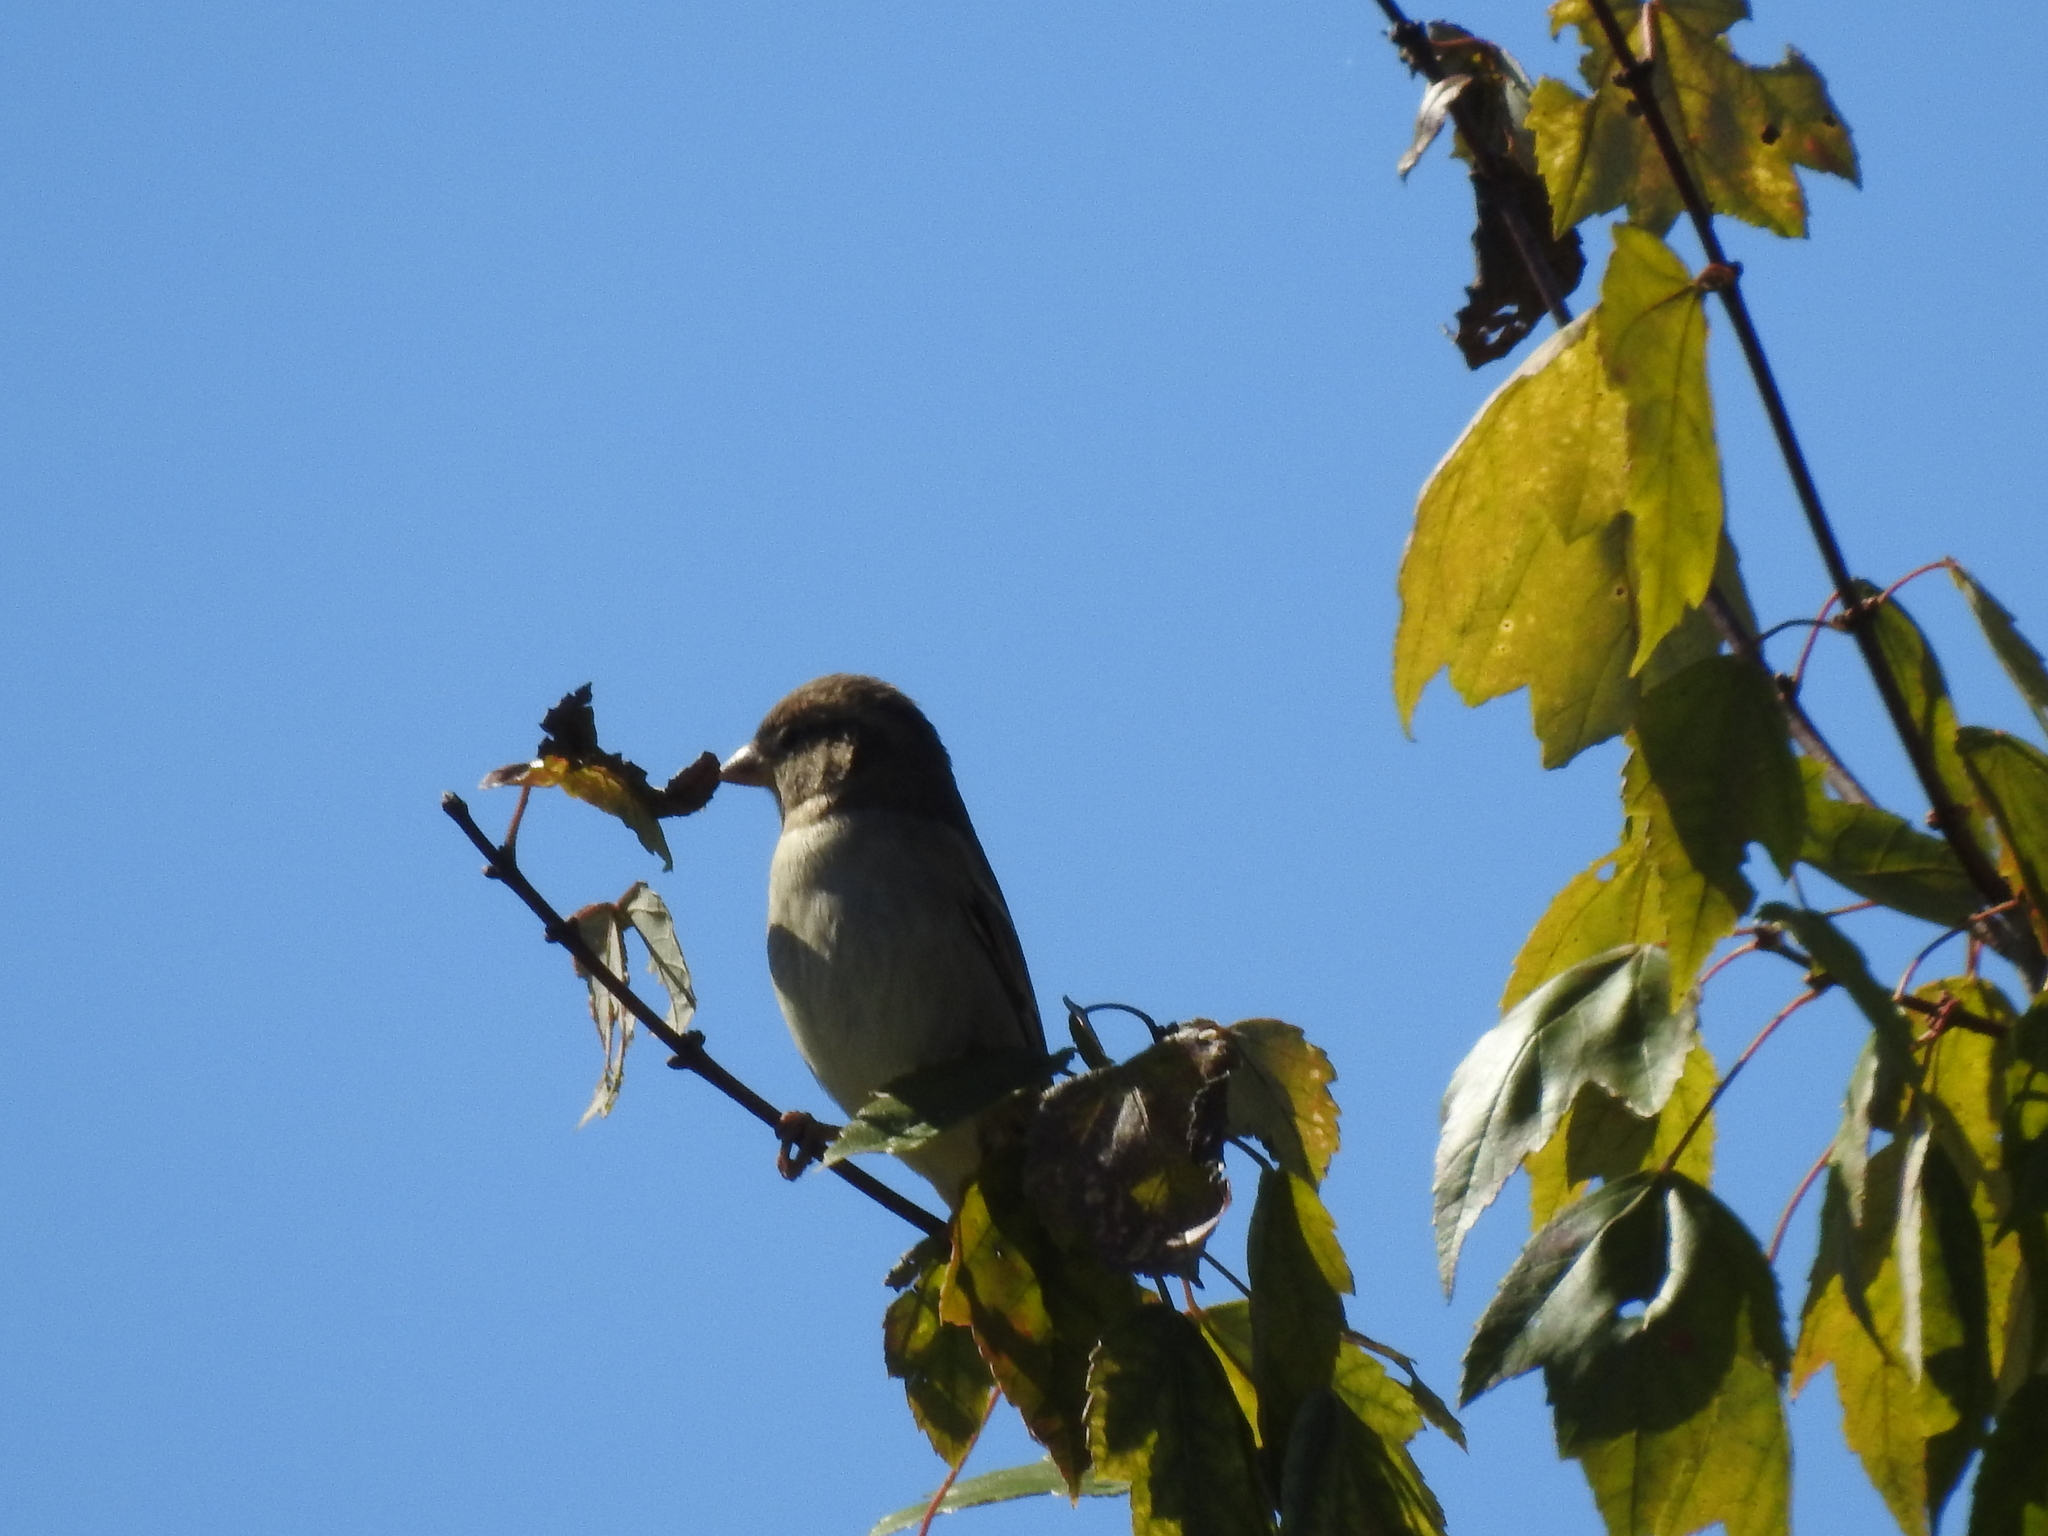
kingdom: Animalia
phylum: Chordata
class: Aves
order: Passeriformes
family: Passeridae
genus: Passer
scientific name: Passer domesticus
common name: House sparrow
